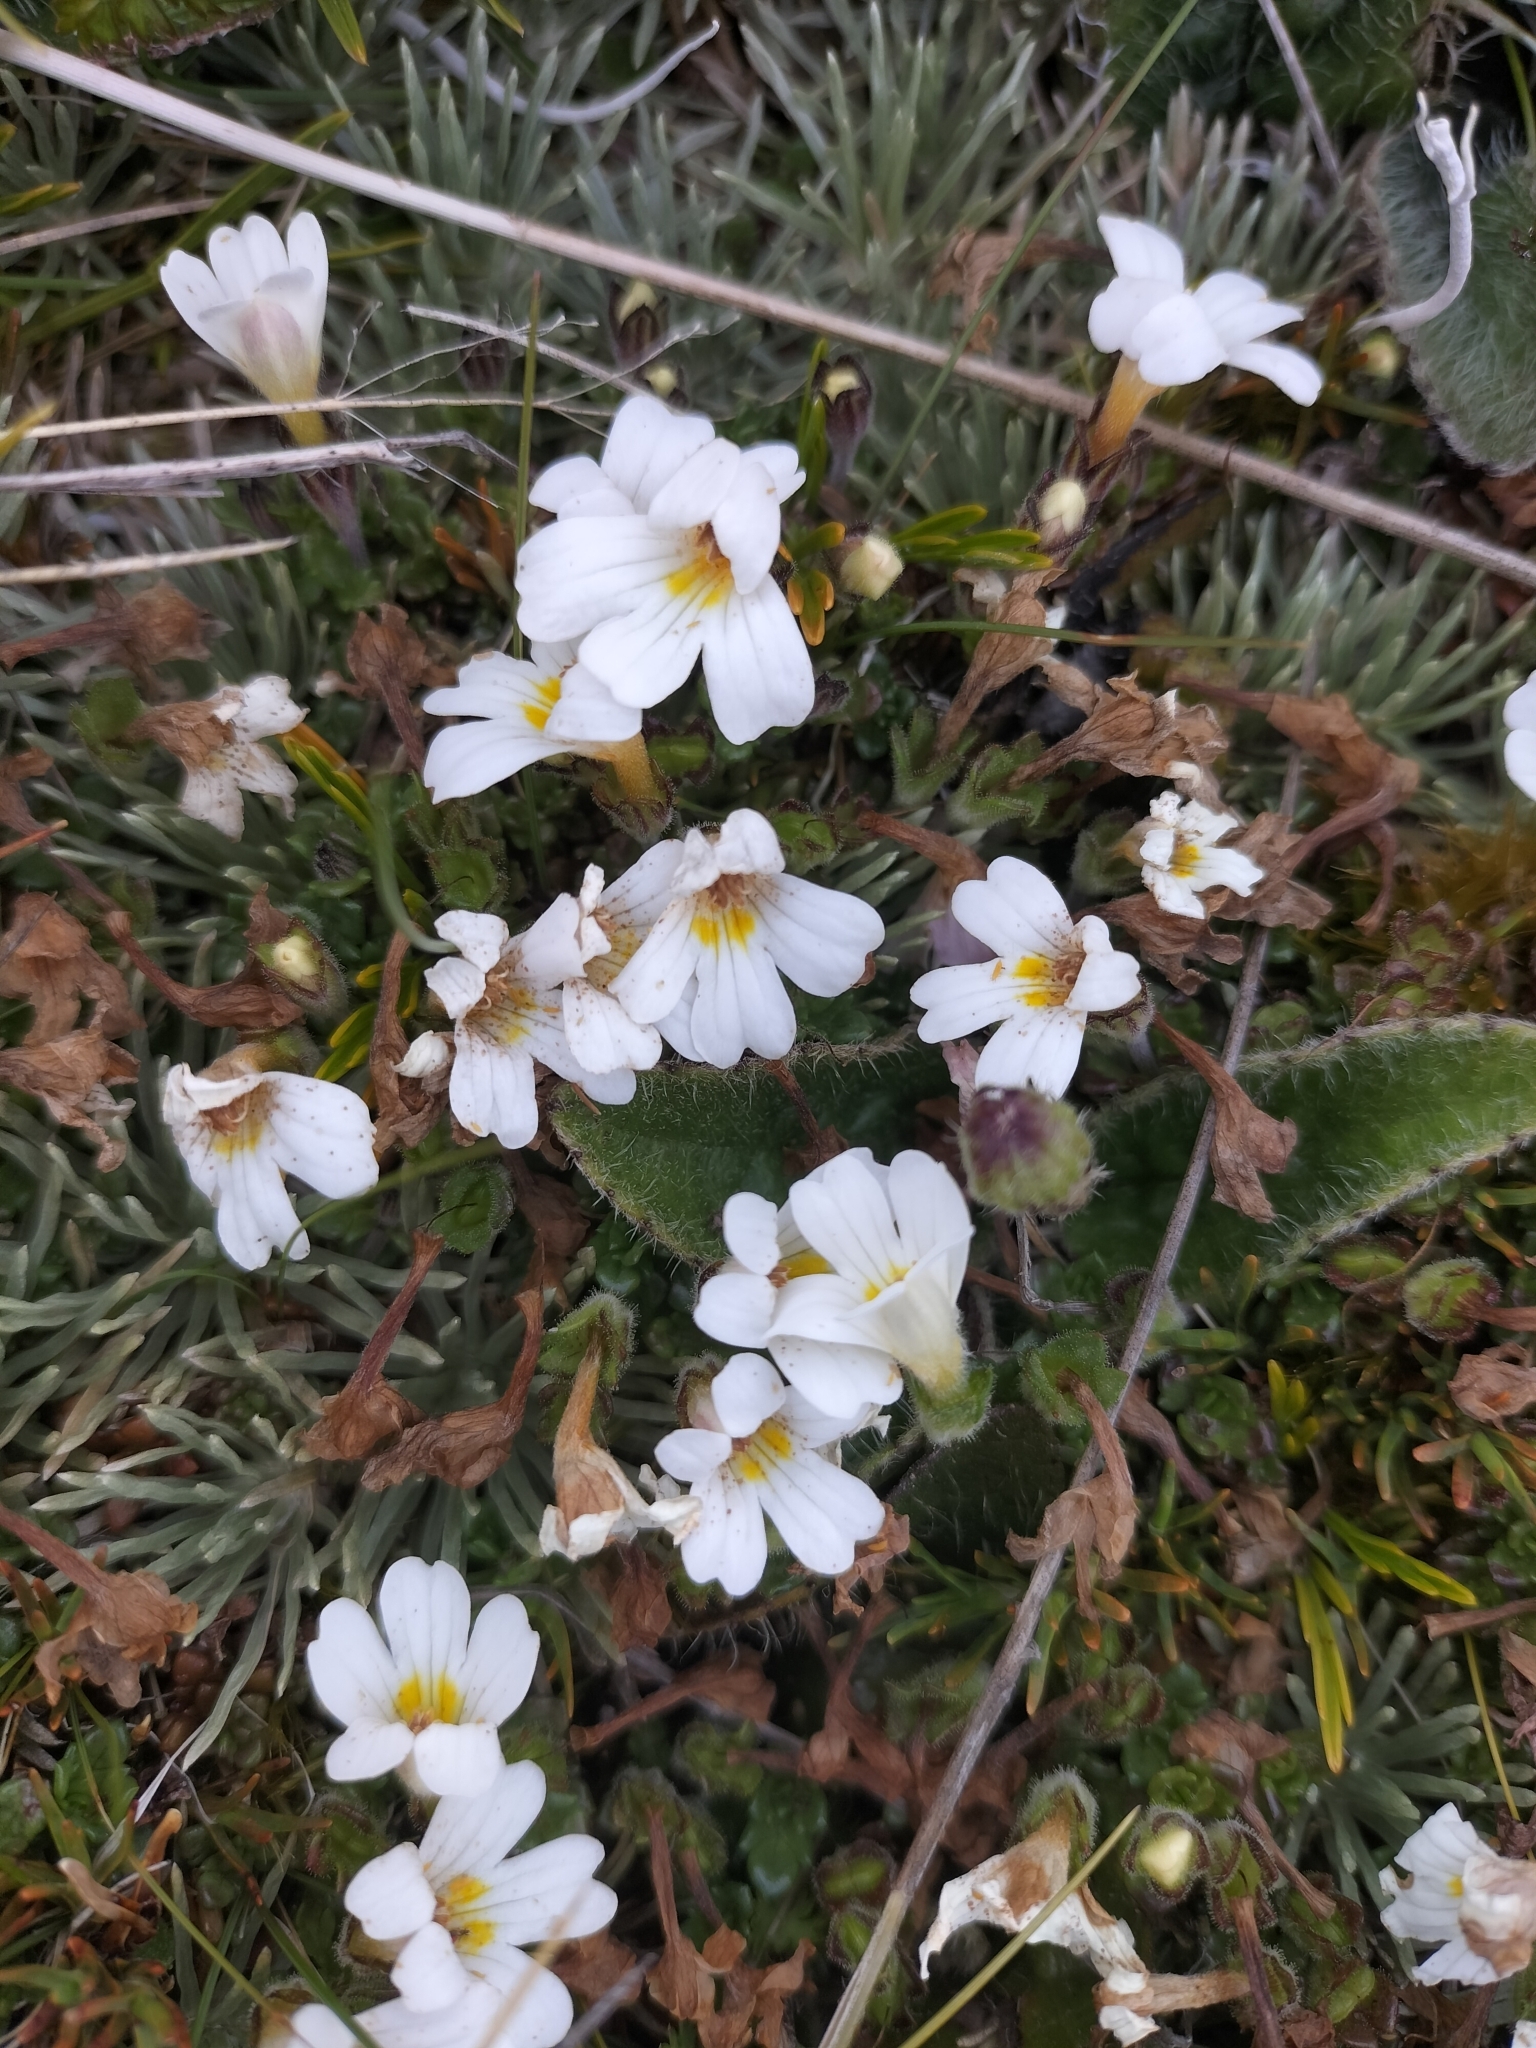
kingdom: Plantae
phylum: Tracheophyta
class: Magnoliopsida
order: Lamiales
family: Orobanchaceae
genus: Euphrasia
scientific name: Euphrasia petriei
